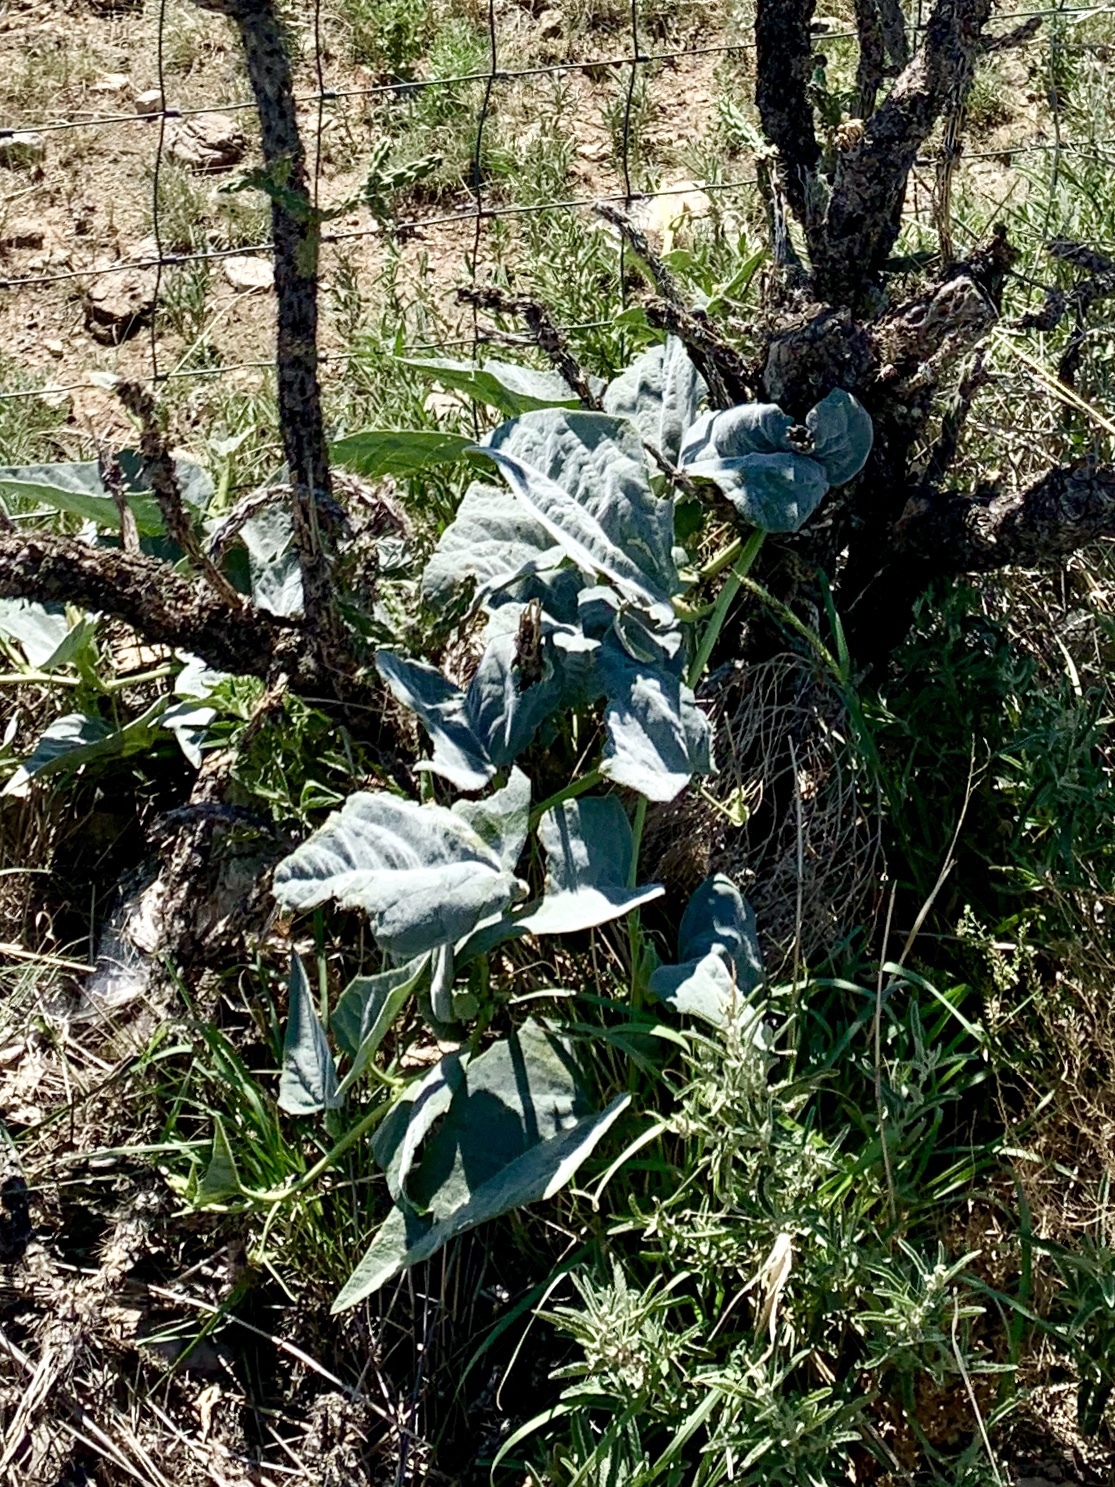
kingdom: Plantae
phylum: Tracheophyta
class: Magnoliopsida
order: Cucurbitales
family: Cucurbitaceae
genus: Cucurbita
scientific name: Cucurbita foetidissima
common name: Buffalo gourd
